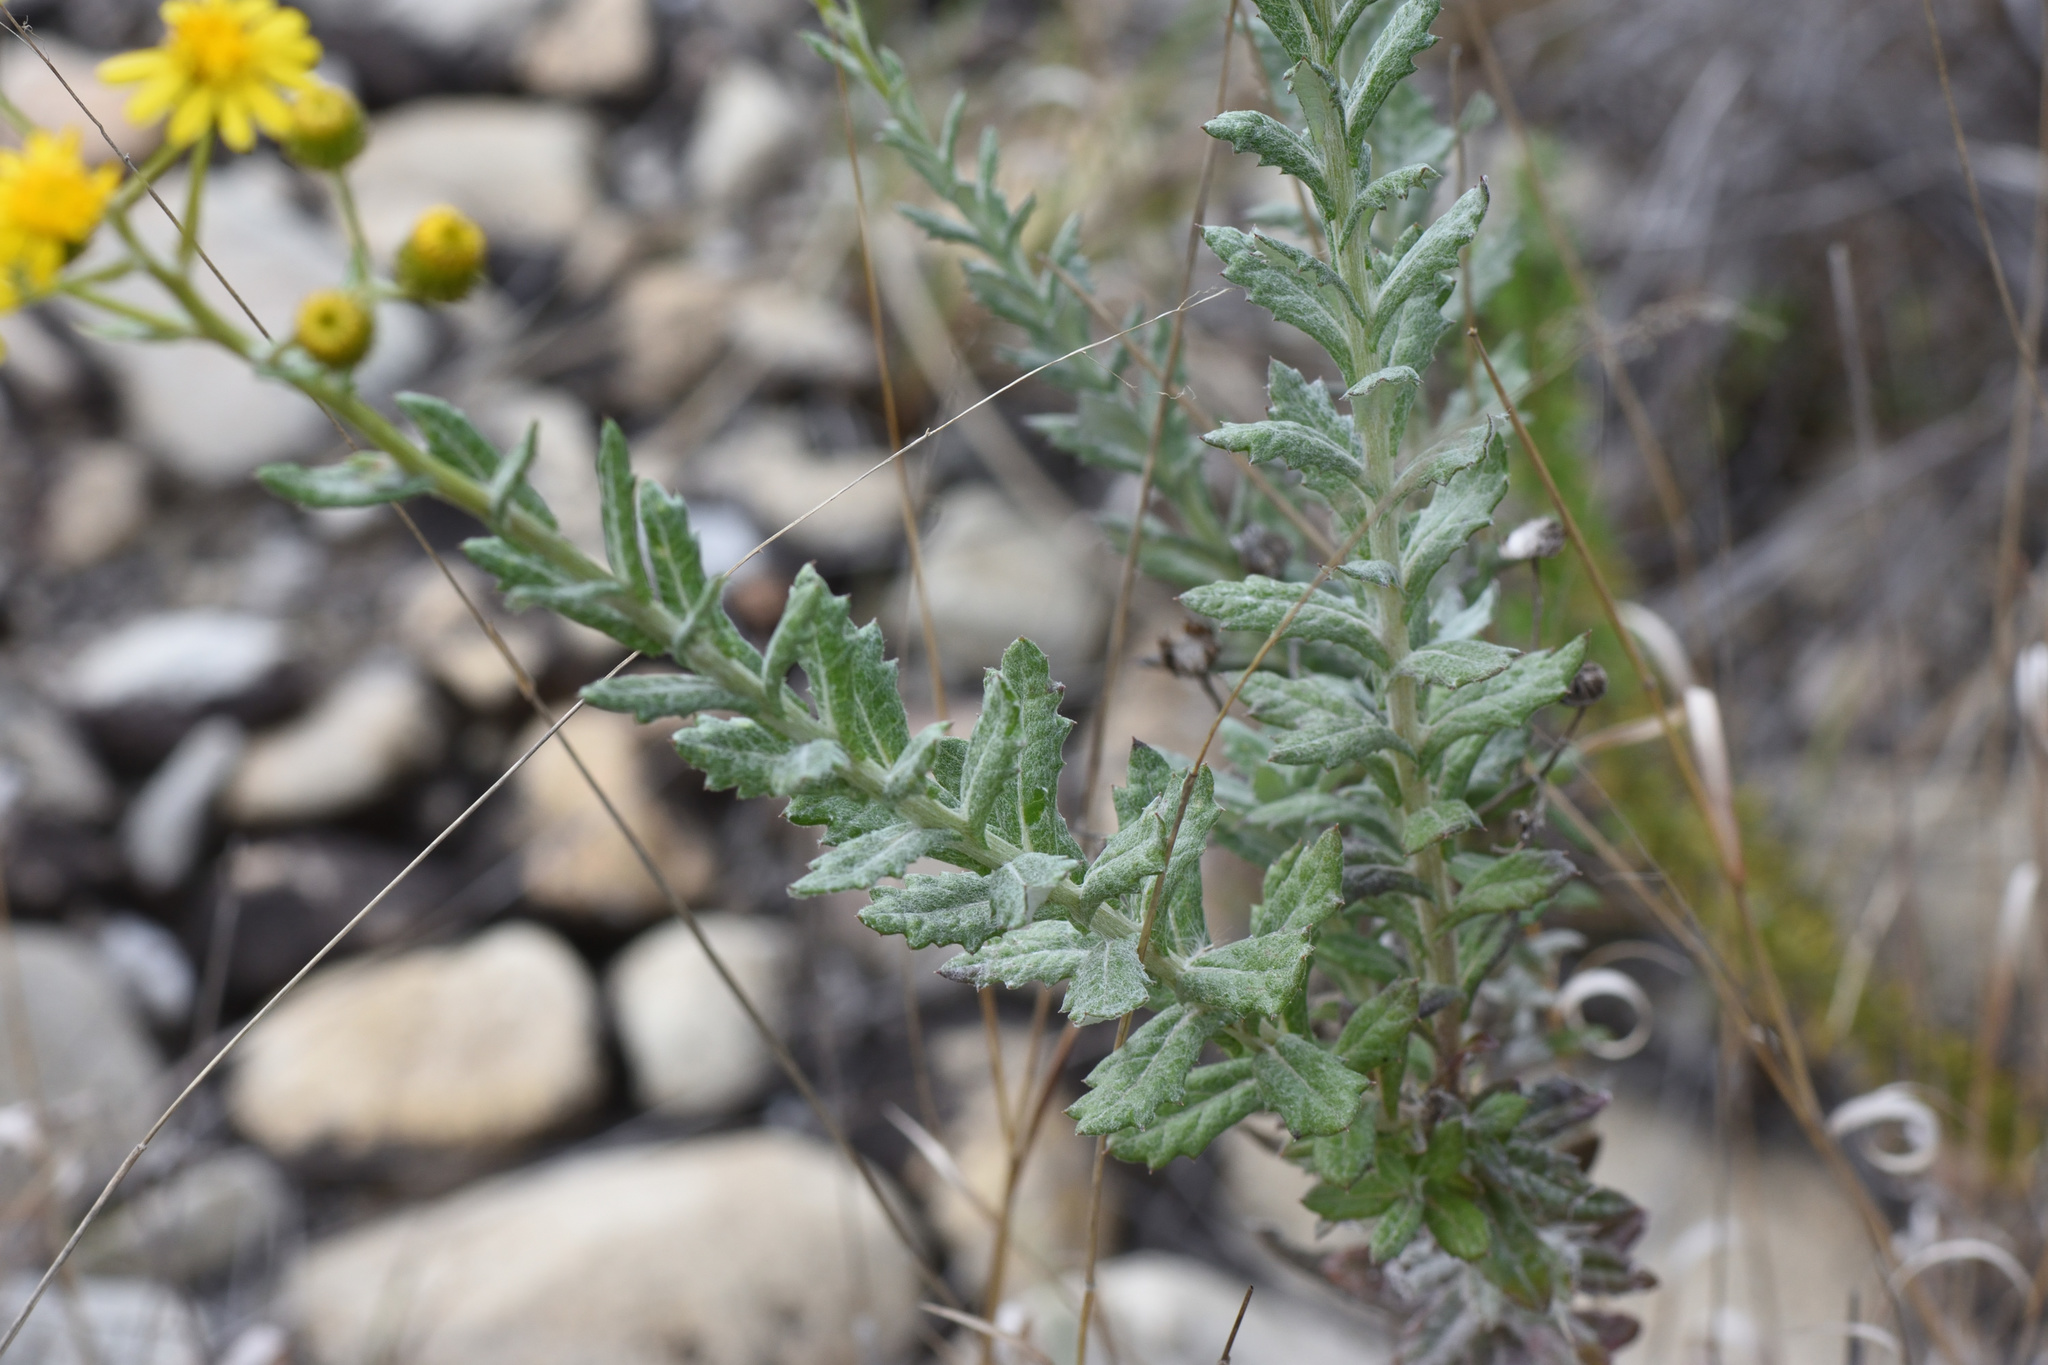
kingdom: Plantae
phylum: Tracheophyta
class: Magnoliopsida
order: Asterales
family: Asteraceae
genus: Senecio
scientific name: Senecio ilicifolius
